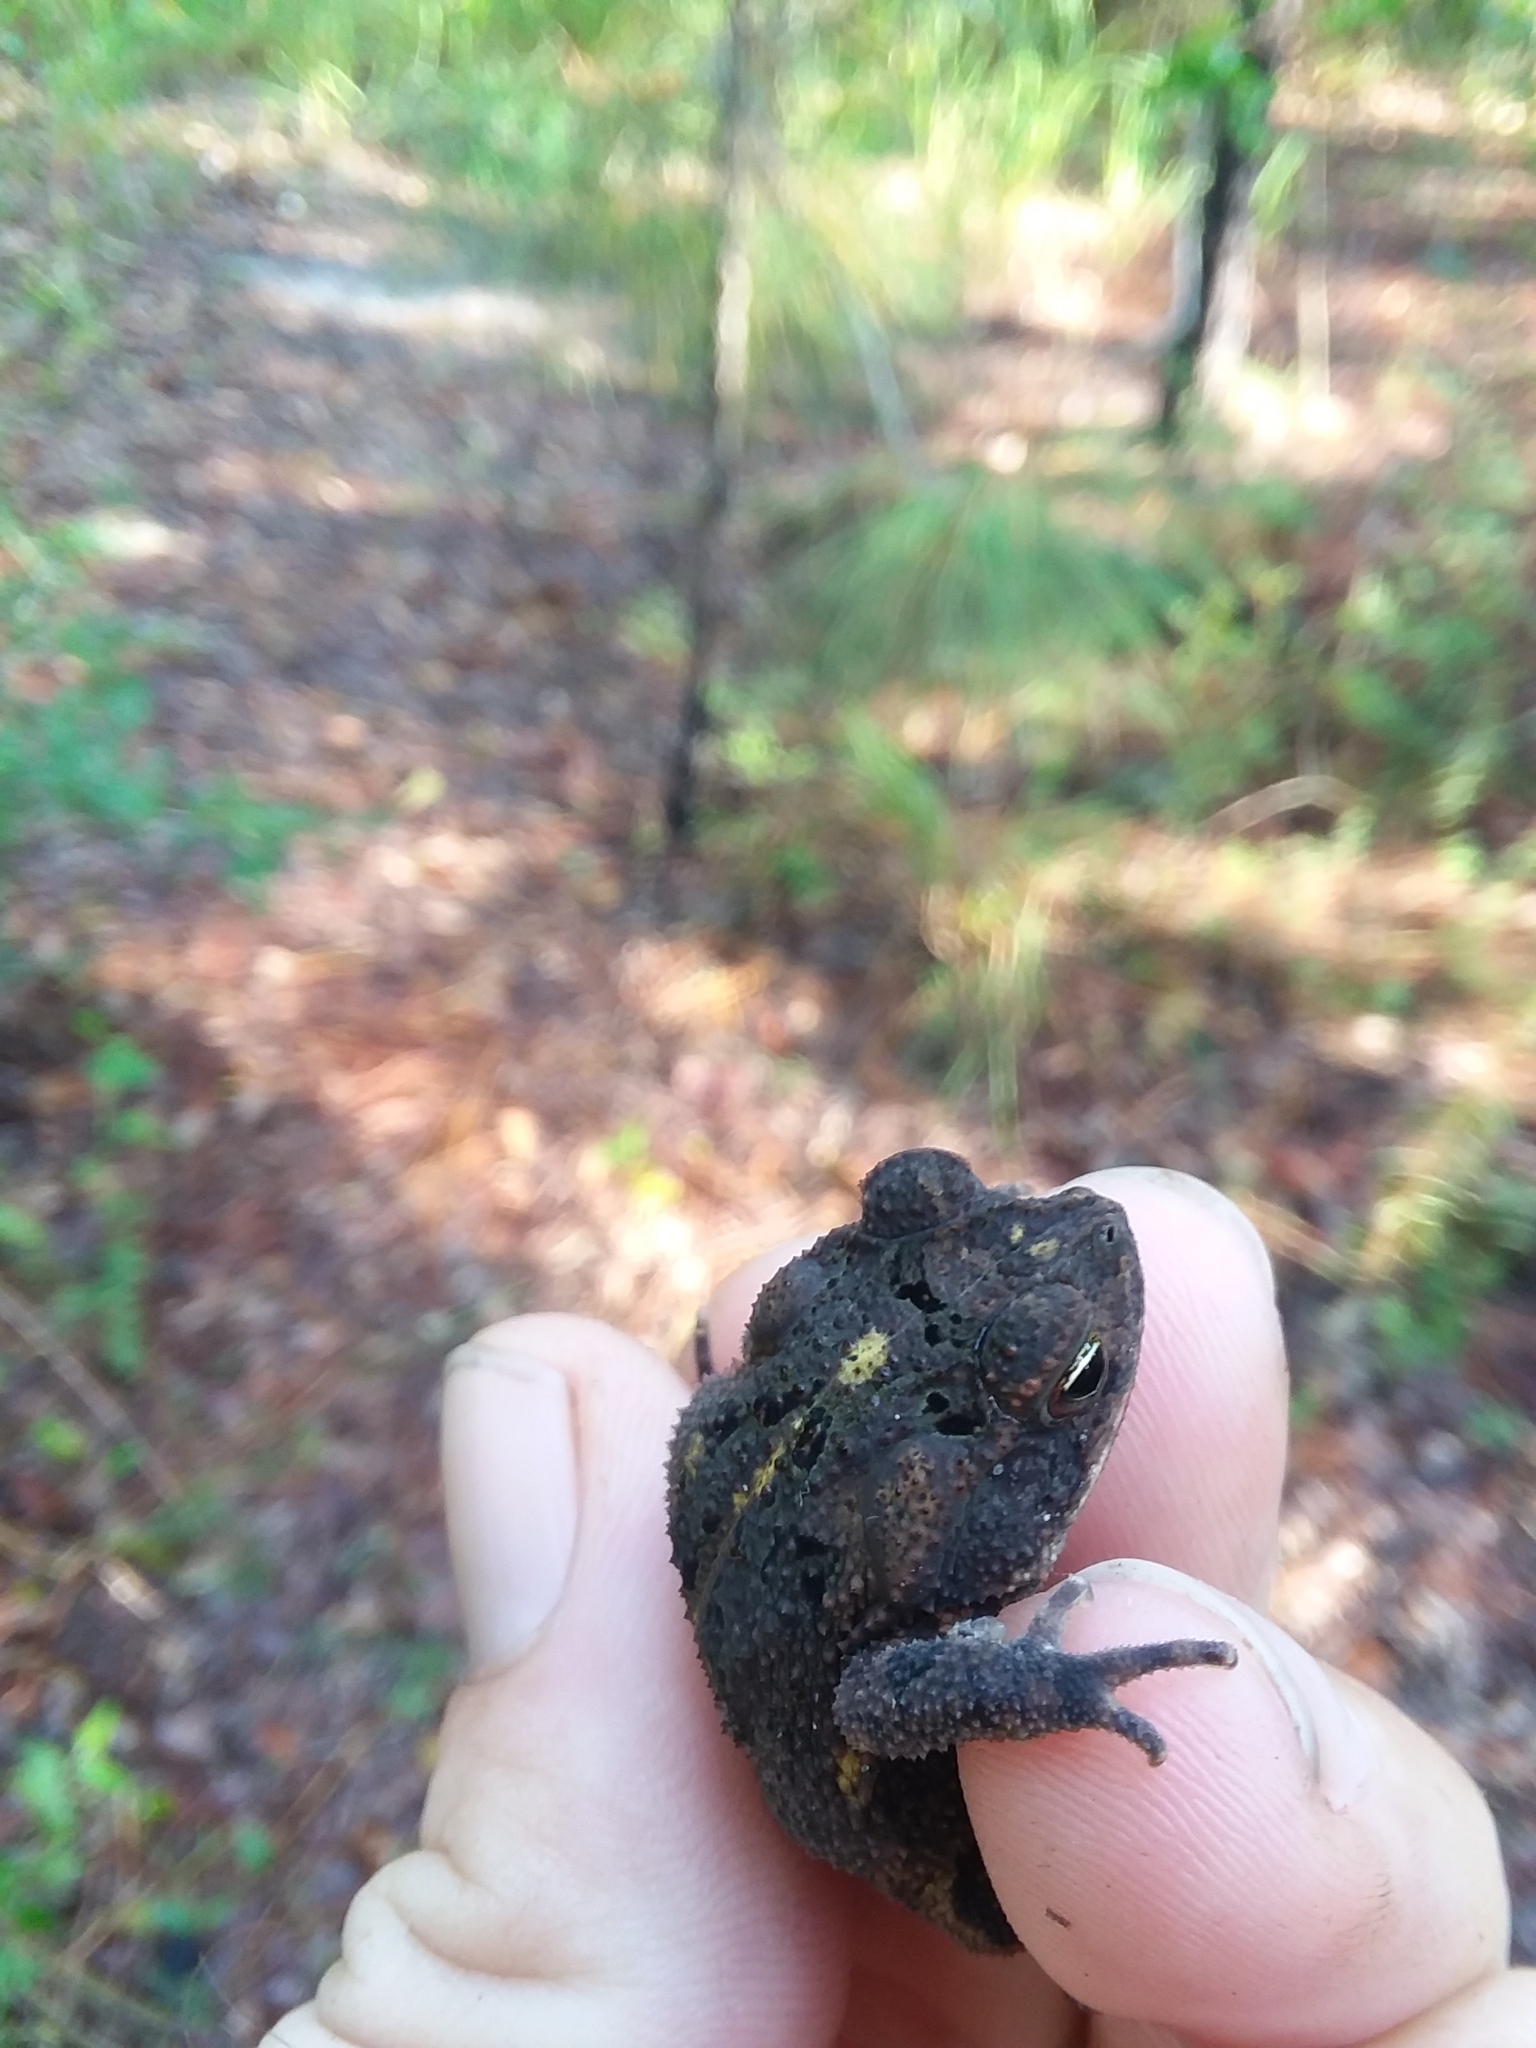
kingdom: Animalia
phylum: Chordata
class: Amphibia
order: Anura
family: Bufonidae
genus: Incilius
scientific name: Incilius nebulifer
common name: Gulf coast toad
